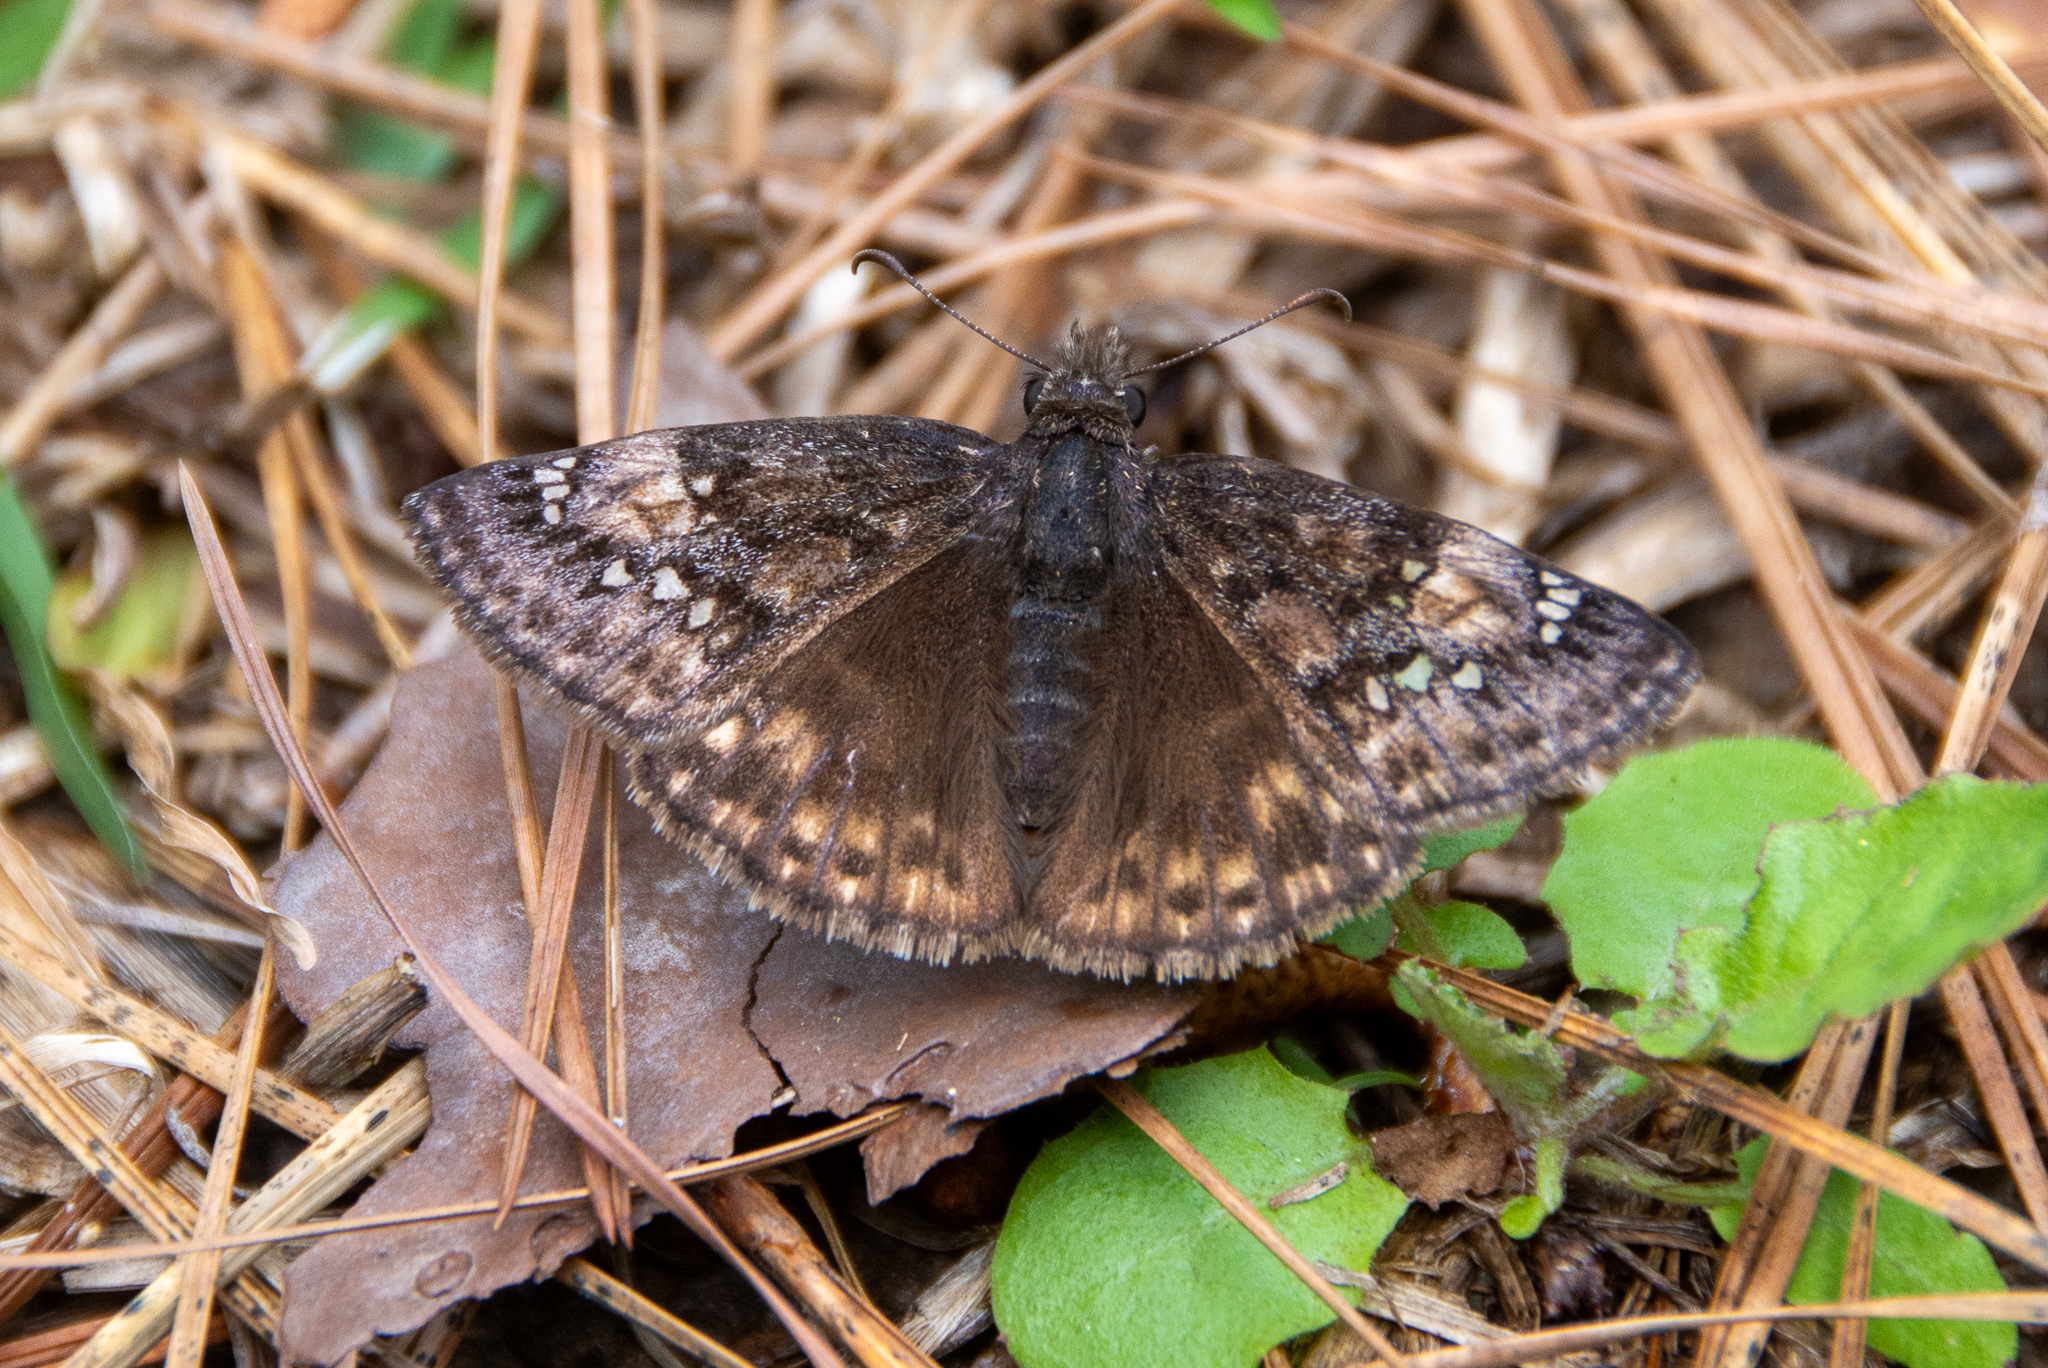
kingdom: Animalia
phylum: Arthropoda
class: Insecta
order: Lepidoptera
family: Hesperiidae
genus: Erynnis
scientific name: Erynnis juvenalis
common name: Juvenal's duskywing
